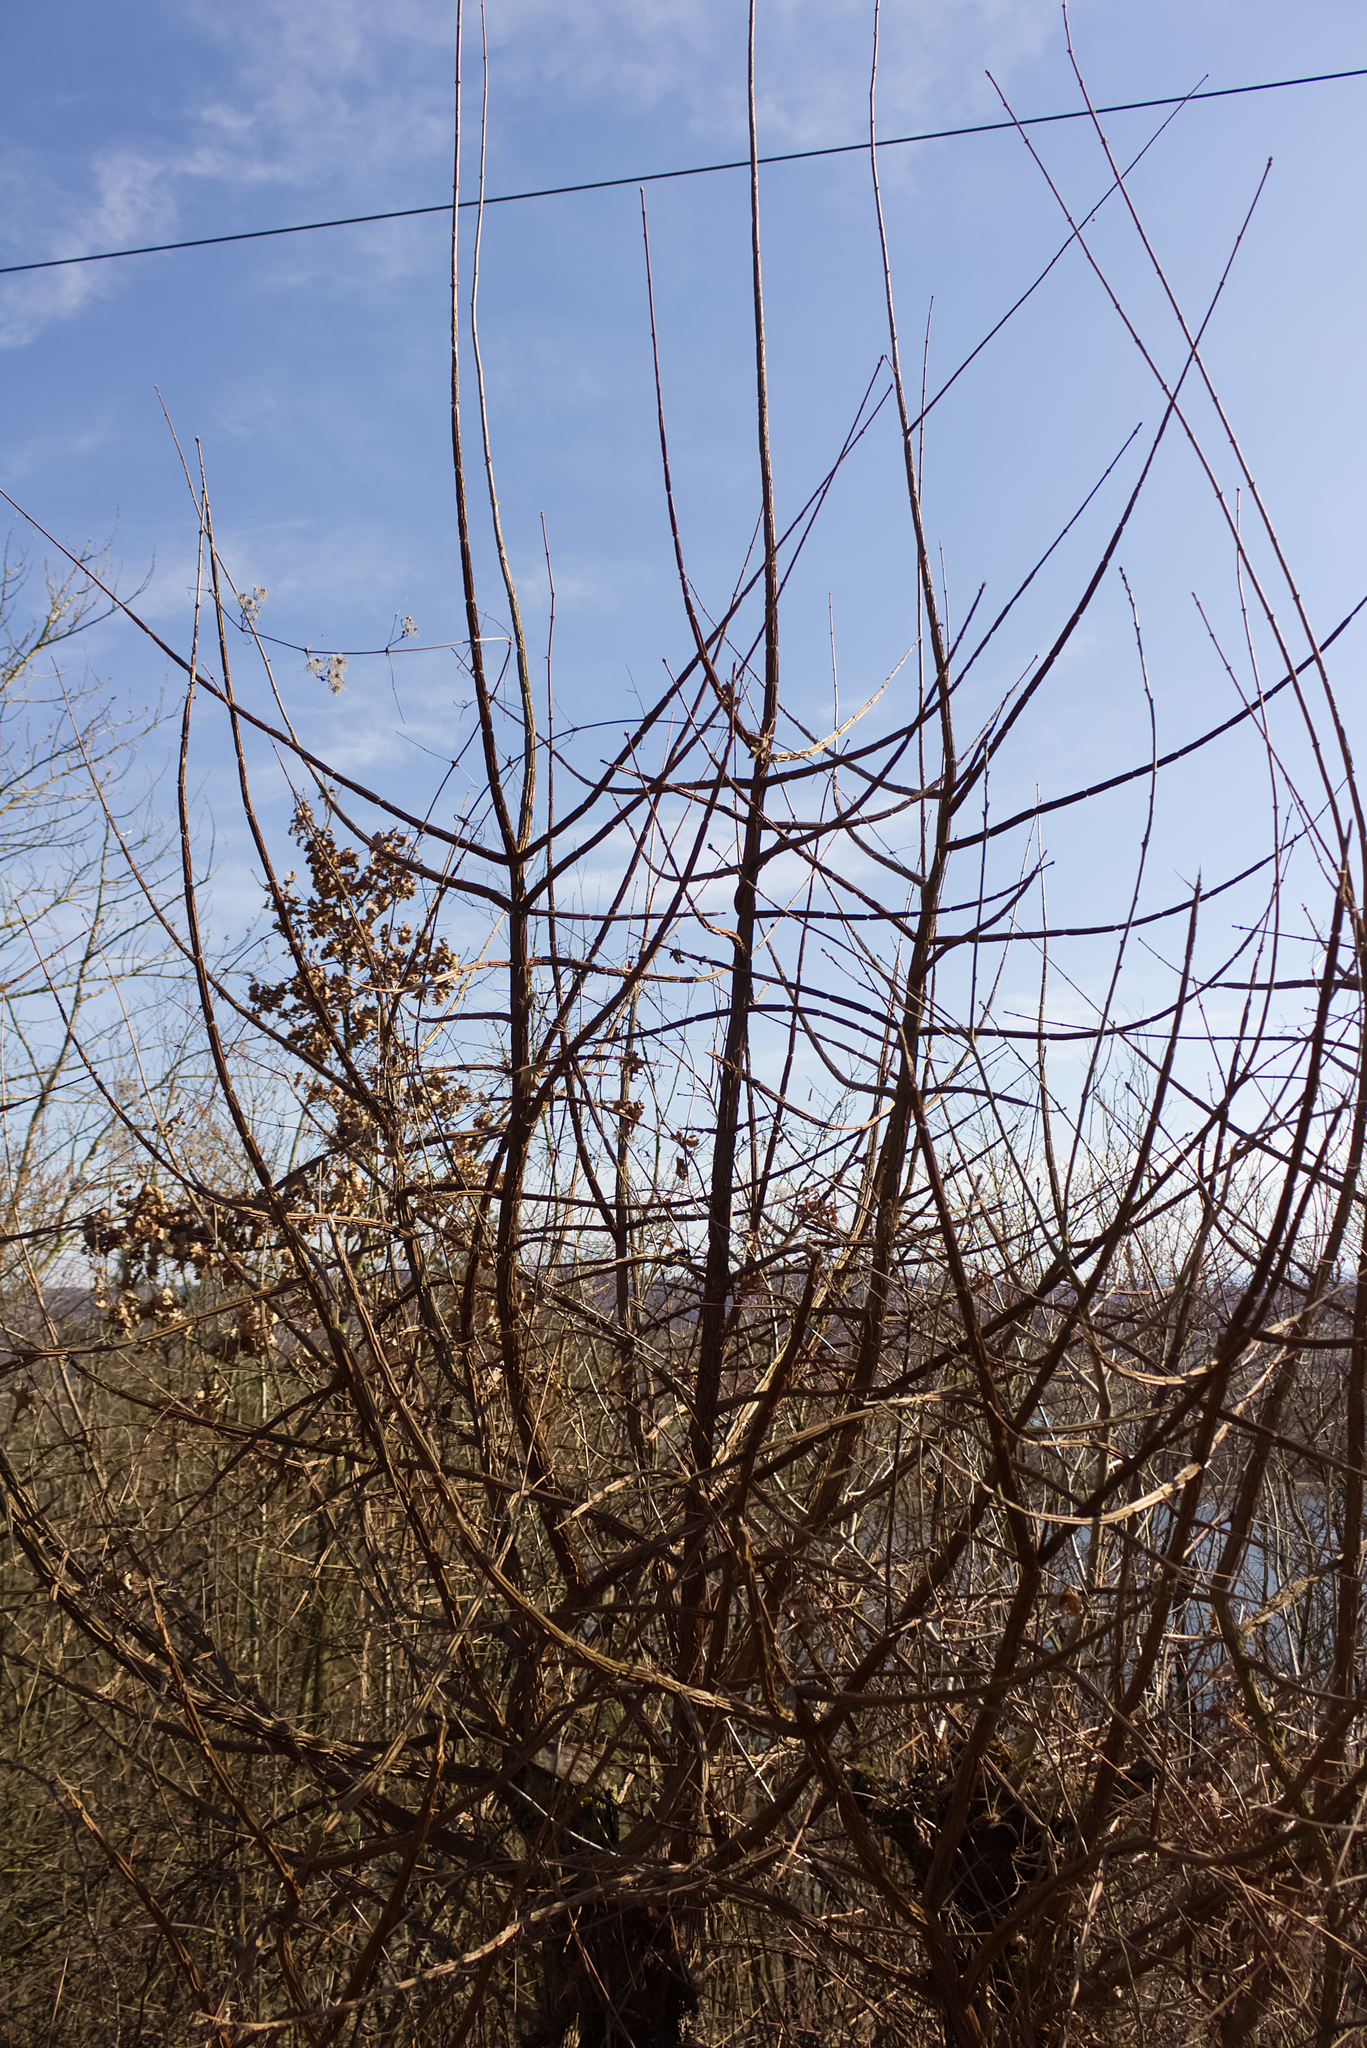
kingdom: Plantae
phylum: Tracheophyta
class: Magnoliopsida
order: Sapindales
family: Sapindaceae
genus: Acer
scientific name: Acer campestre
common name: Field maple
